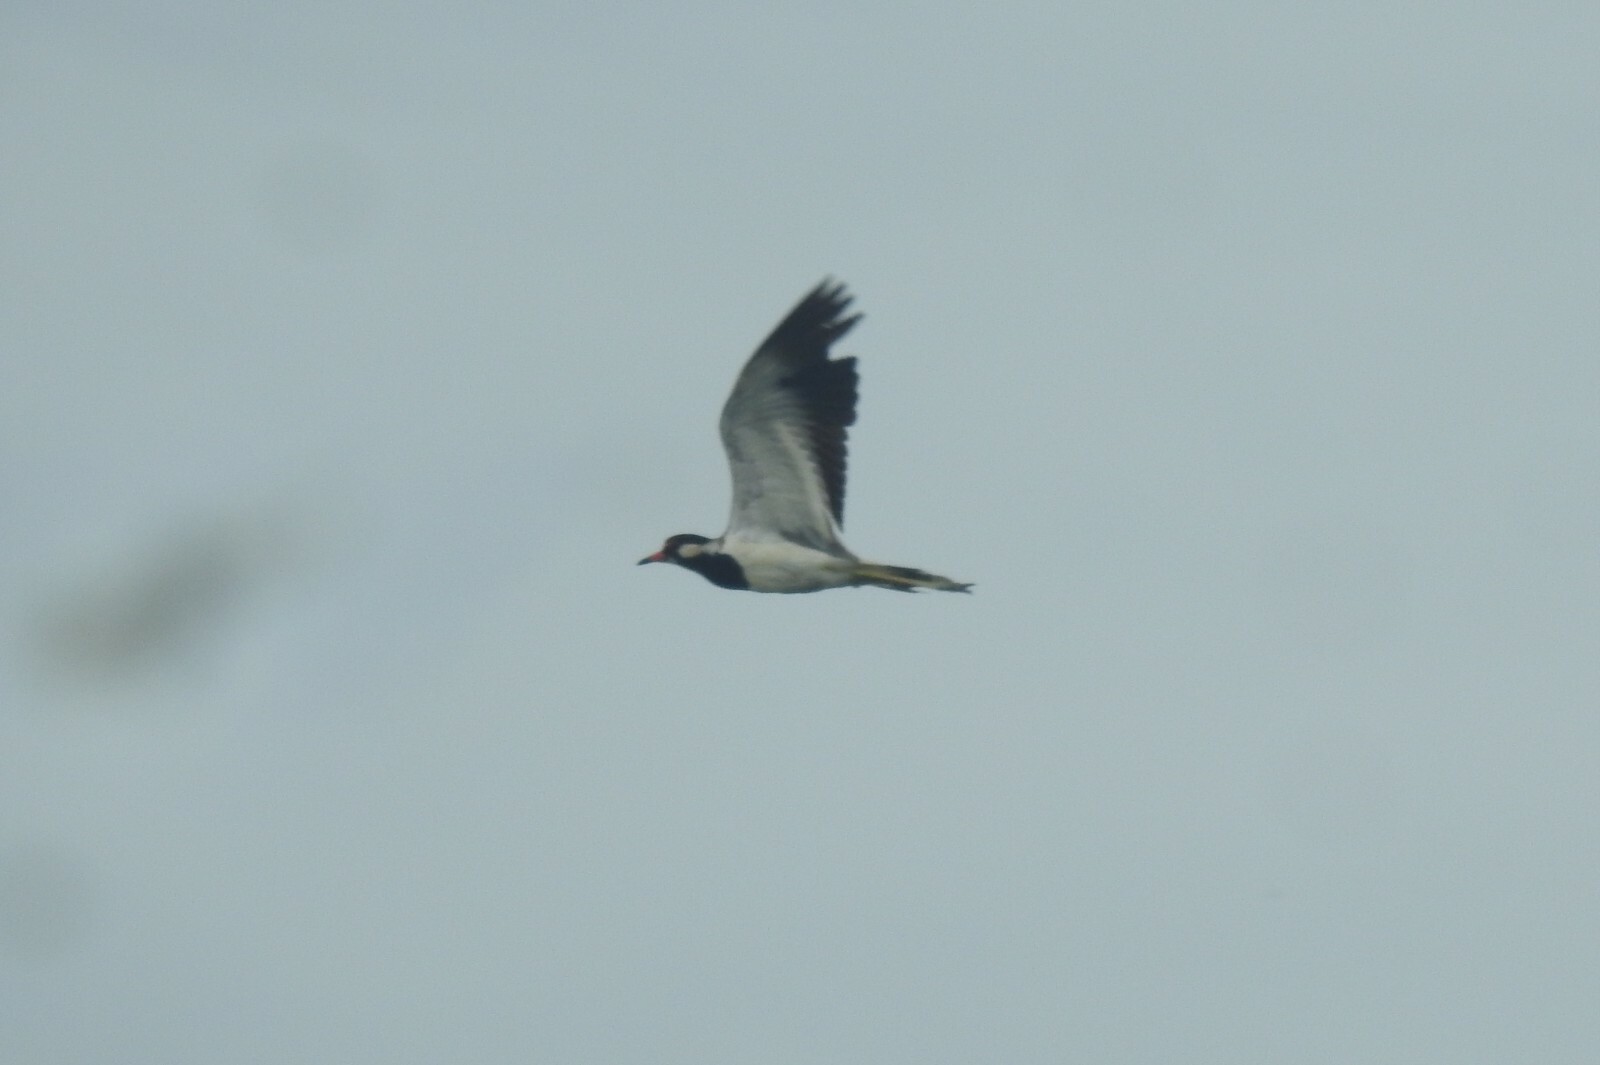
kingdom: Animalia
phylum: Chordata
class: Aves
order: Charadriiformes
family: Charadriidae
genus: Vanellus
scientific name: Vanellus indicus
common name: Red-wattled lapwing
